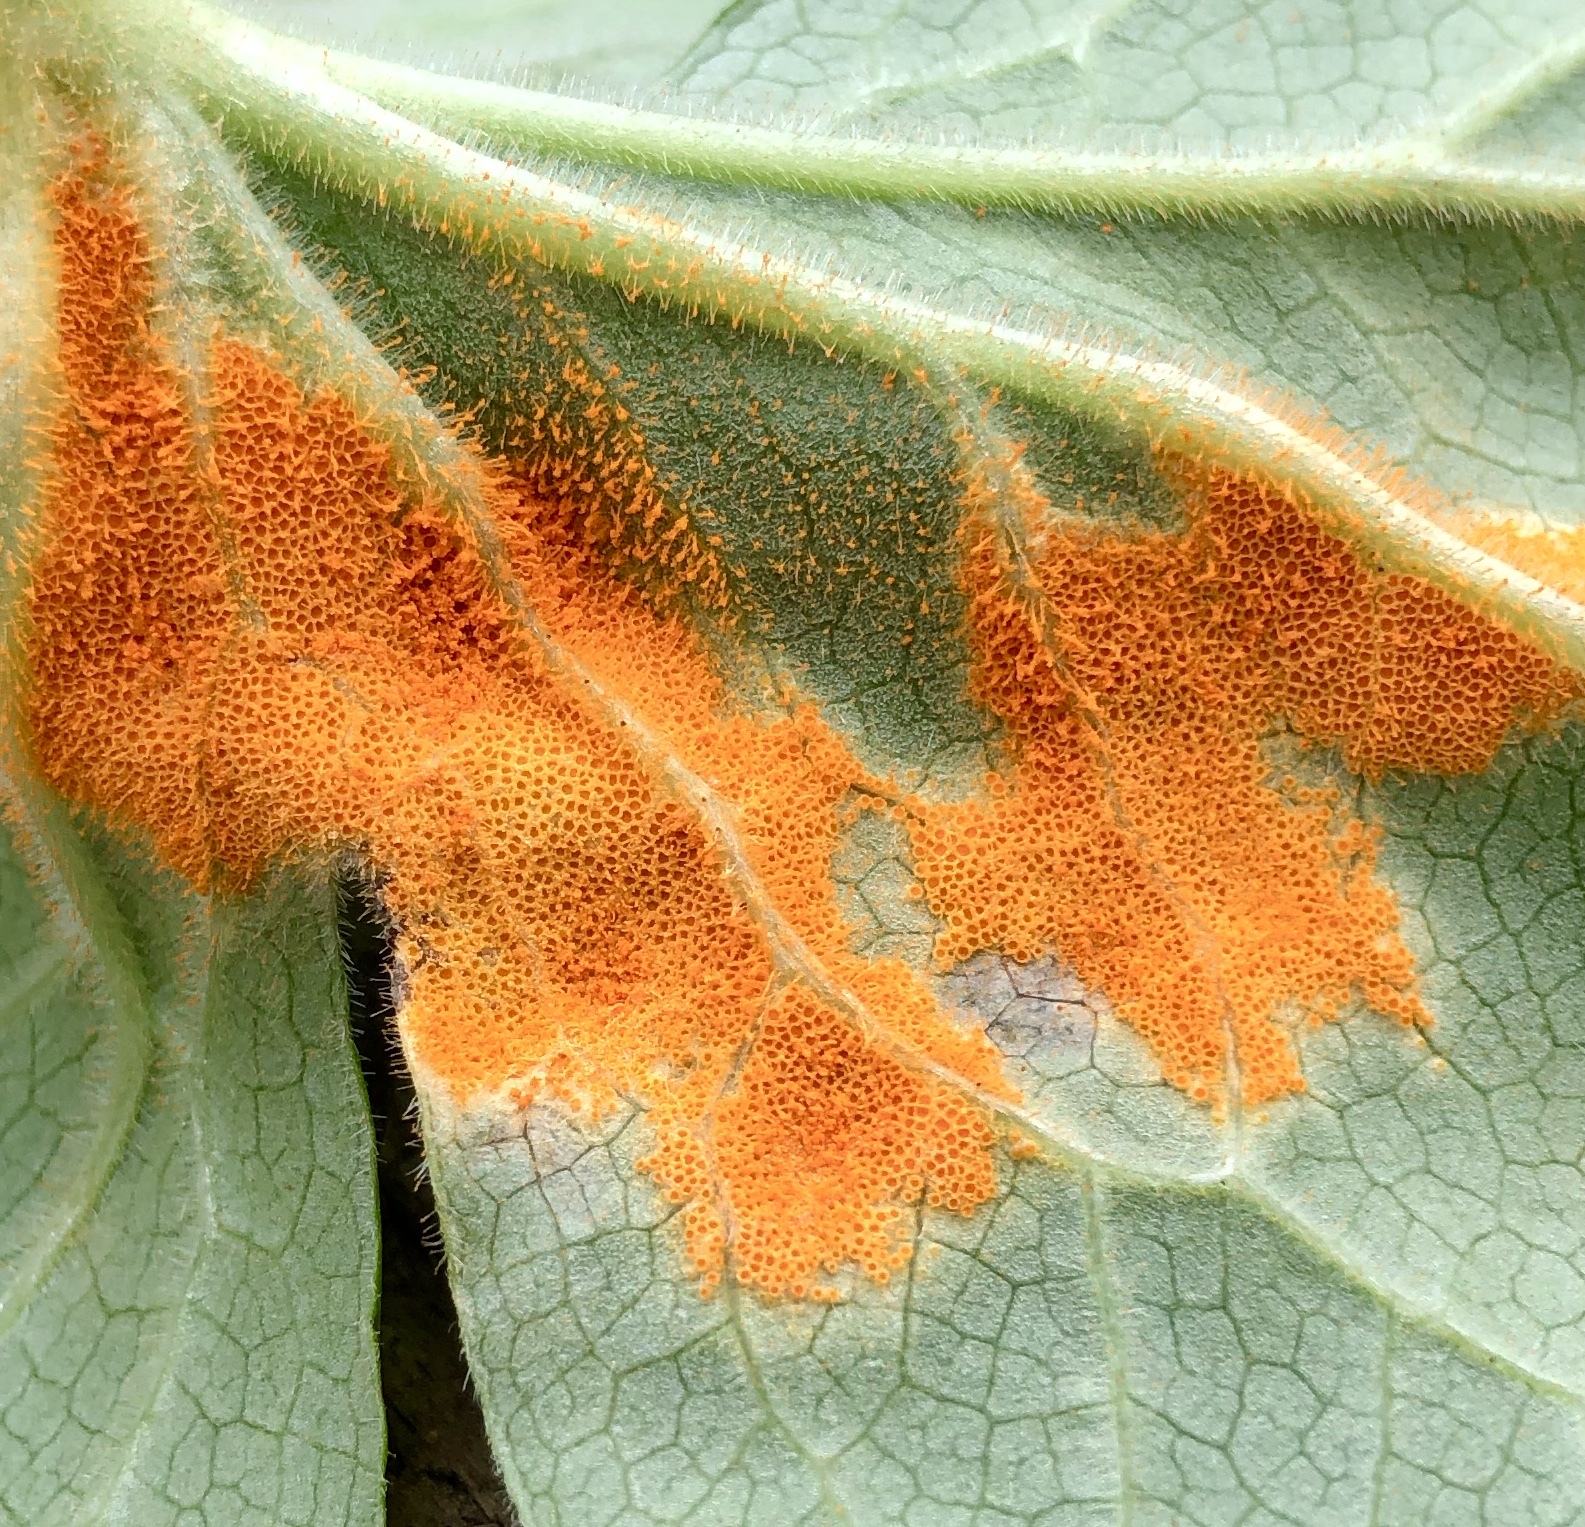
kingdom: Fungi
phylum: Basidiomycota
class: Pucciniomycetes
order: Pucciniales
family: Pucciniaceae
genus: Puccinia
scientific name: Puccinia podophylli
